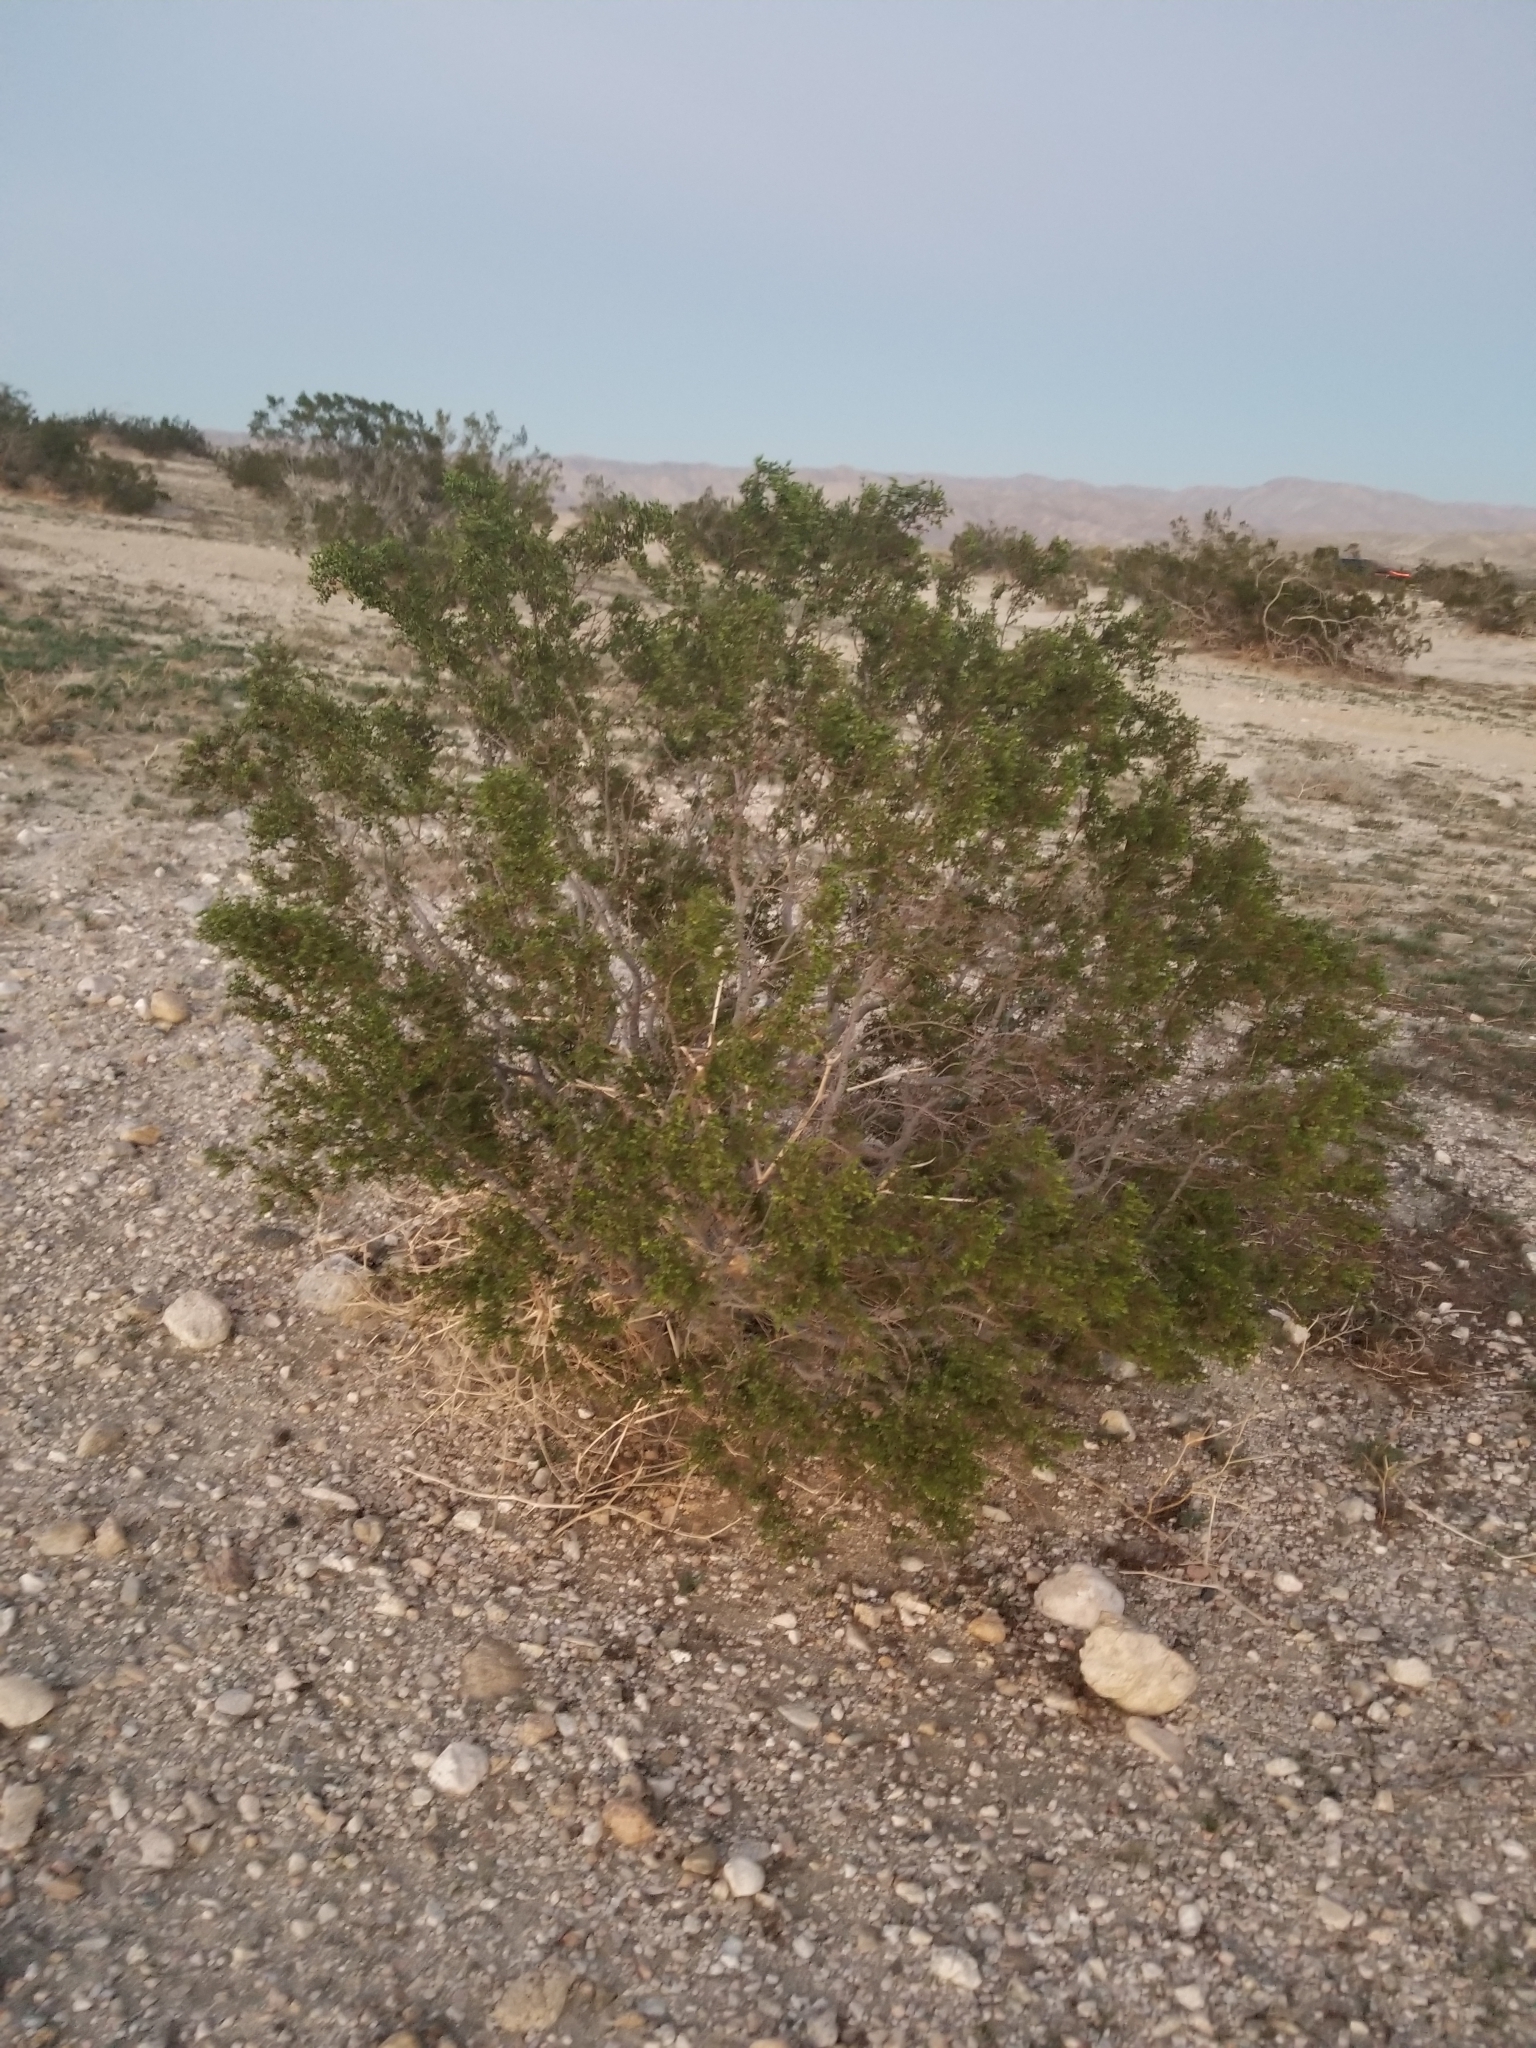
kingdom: Plantae
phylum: Tracheophyta
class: Magnoliopsida
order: Zygophyllales
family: Zygophyllaceae
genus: Larrea
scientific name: Larrea tridentata
